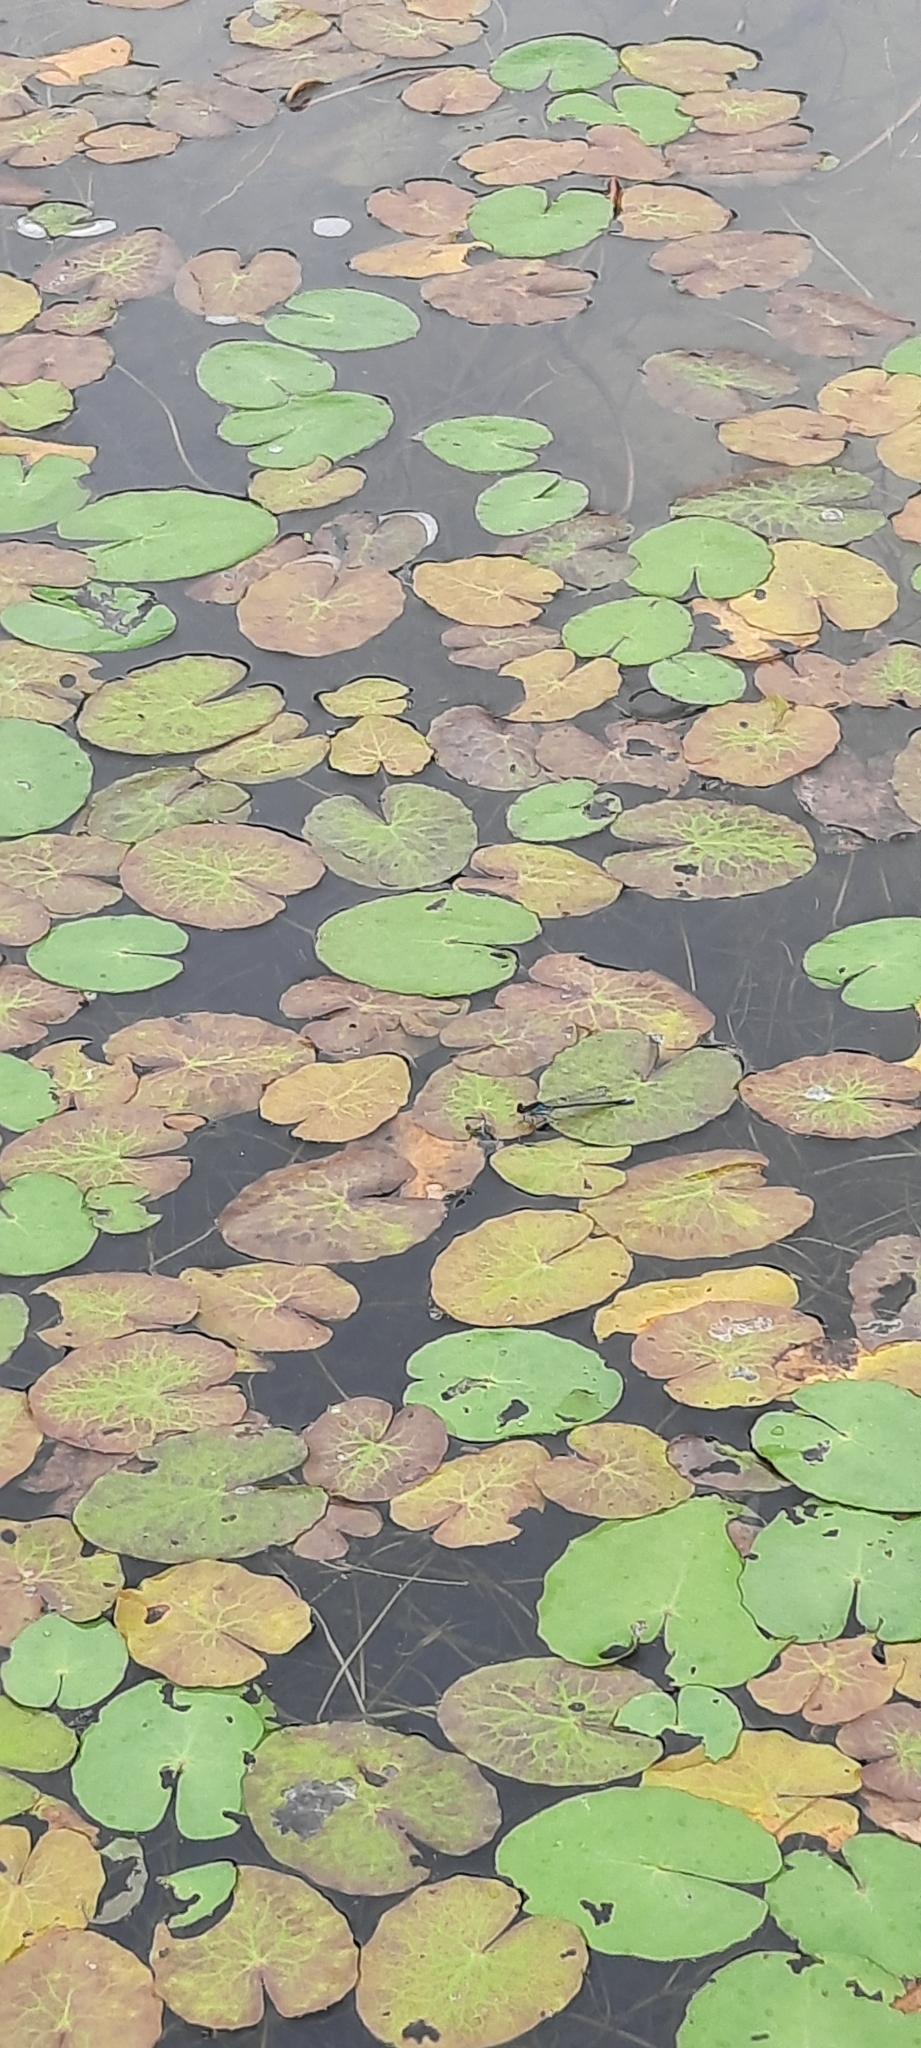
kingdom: Animalia
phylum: Arthropoda
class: Insecta
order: Odonata
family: Coenagrionidae
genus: Erythromma
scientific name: Erythromma viridulum
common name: Small red-eyed damselfly
